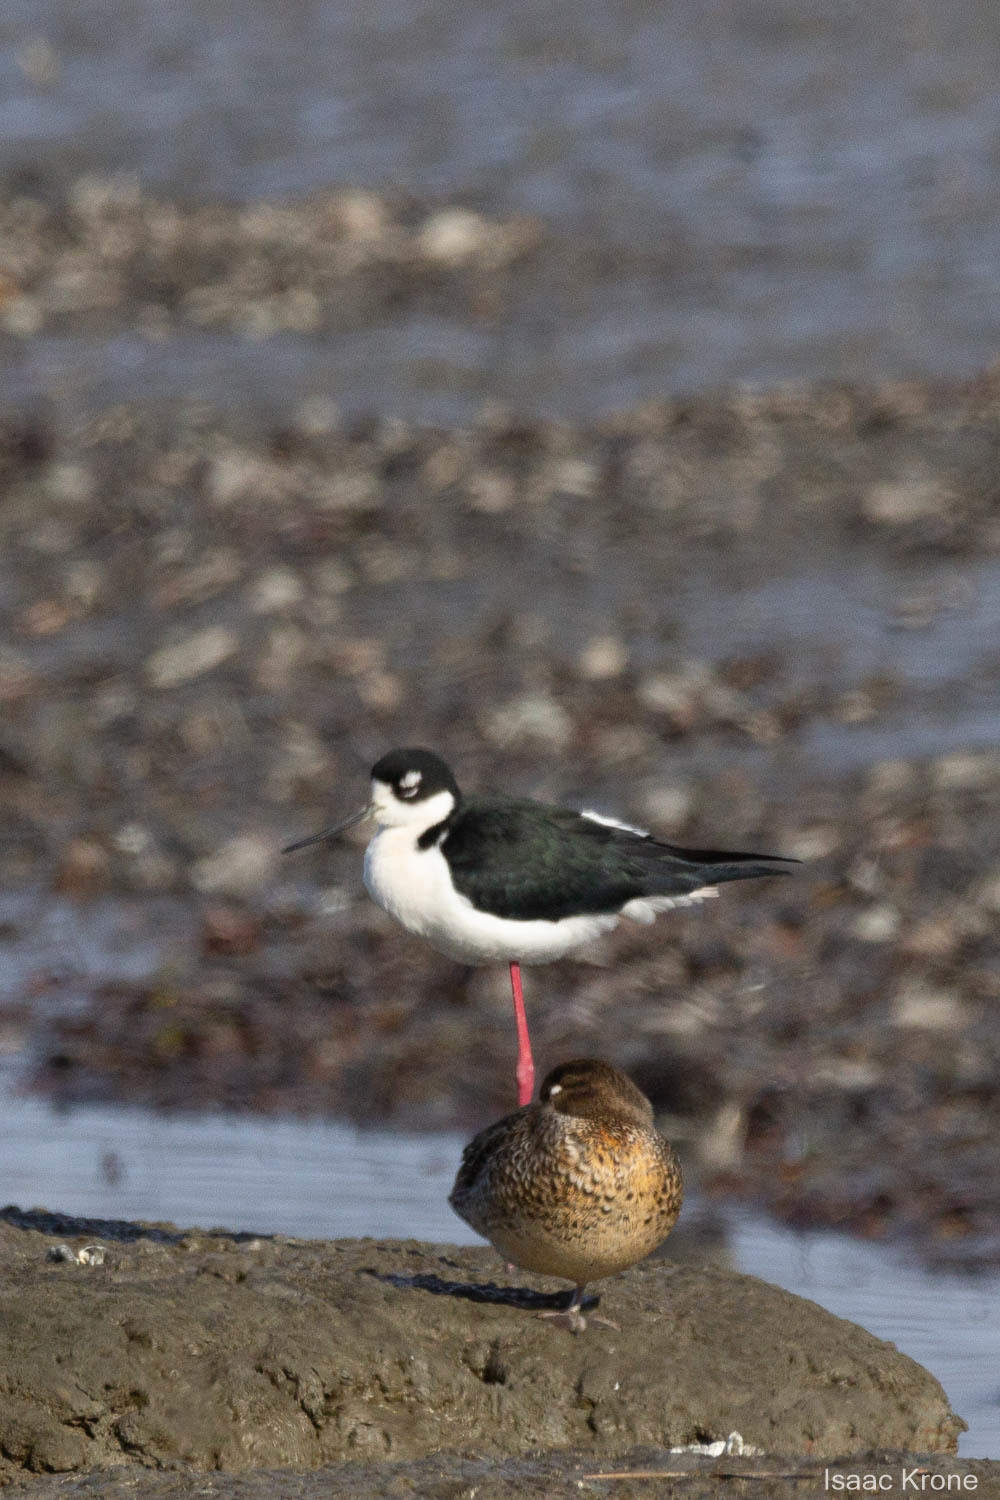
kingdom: Animalia
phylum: Chordata
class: Aves
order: Charadriiformes
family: Recurvirostridae
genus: Himantopus
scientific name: Himantopus mexicanus
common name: Black-necked stilt
